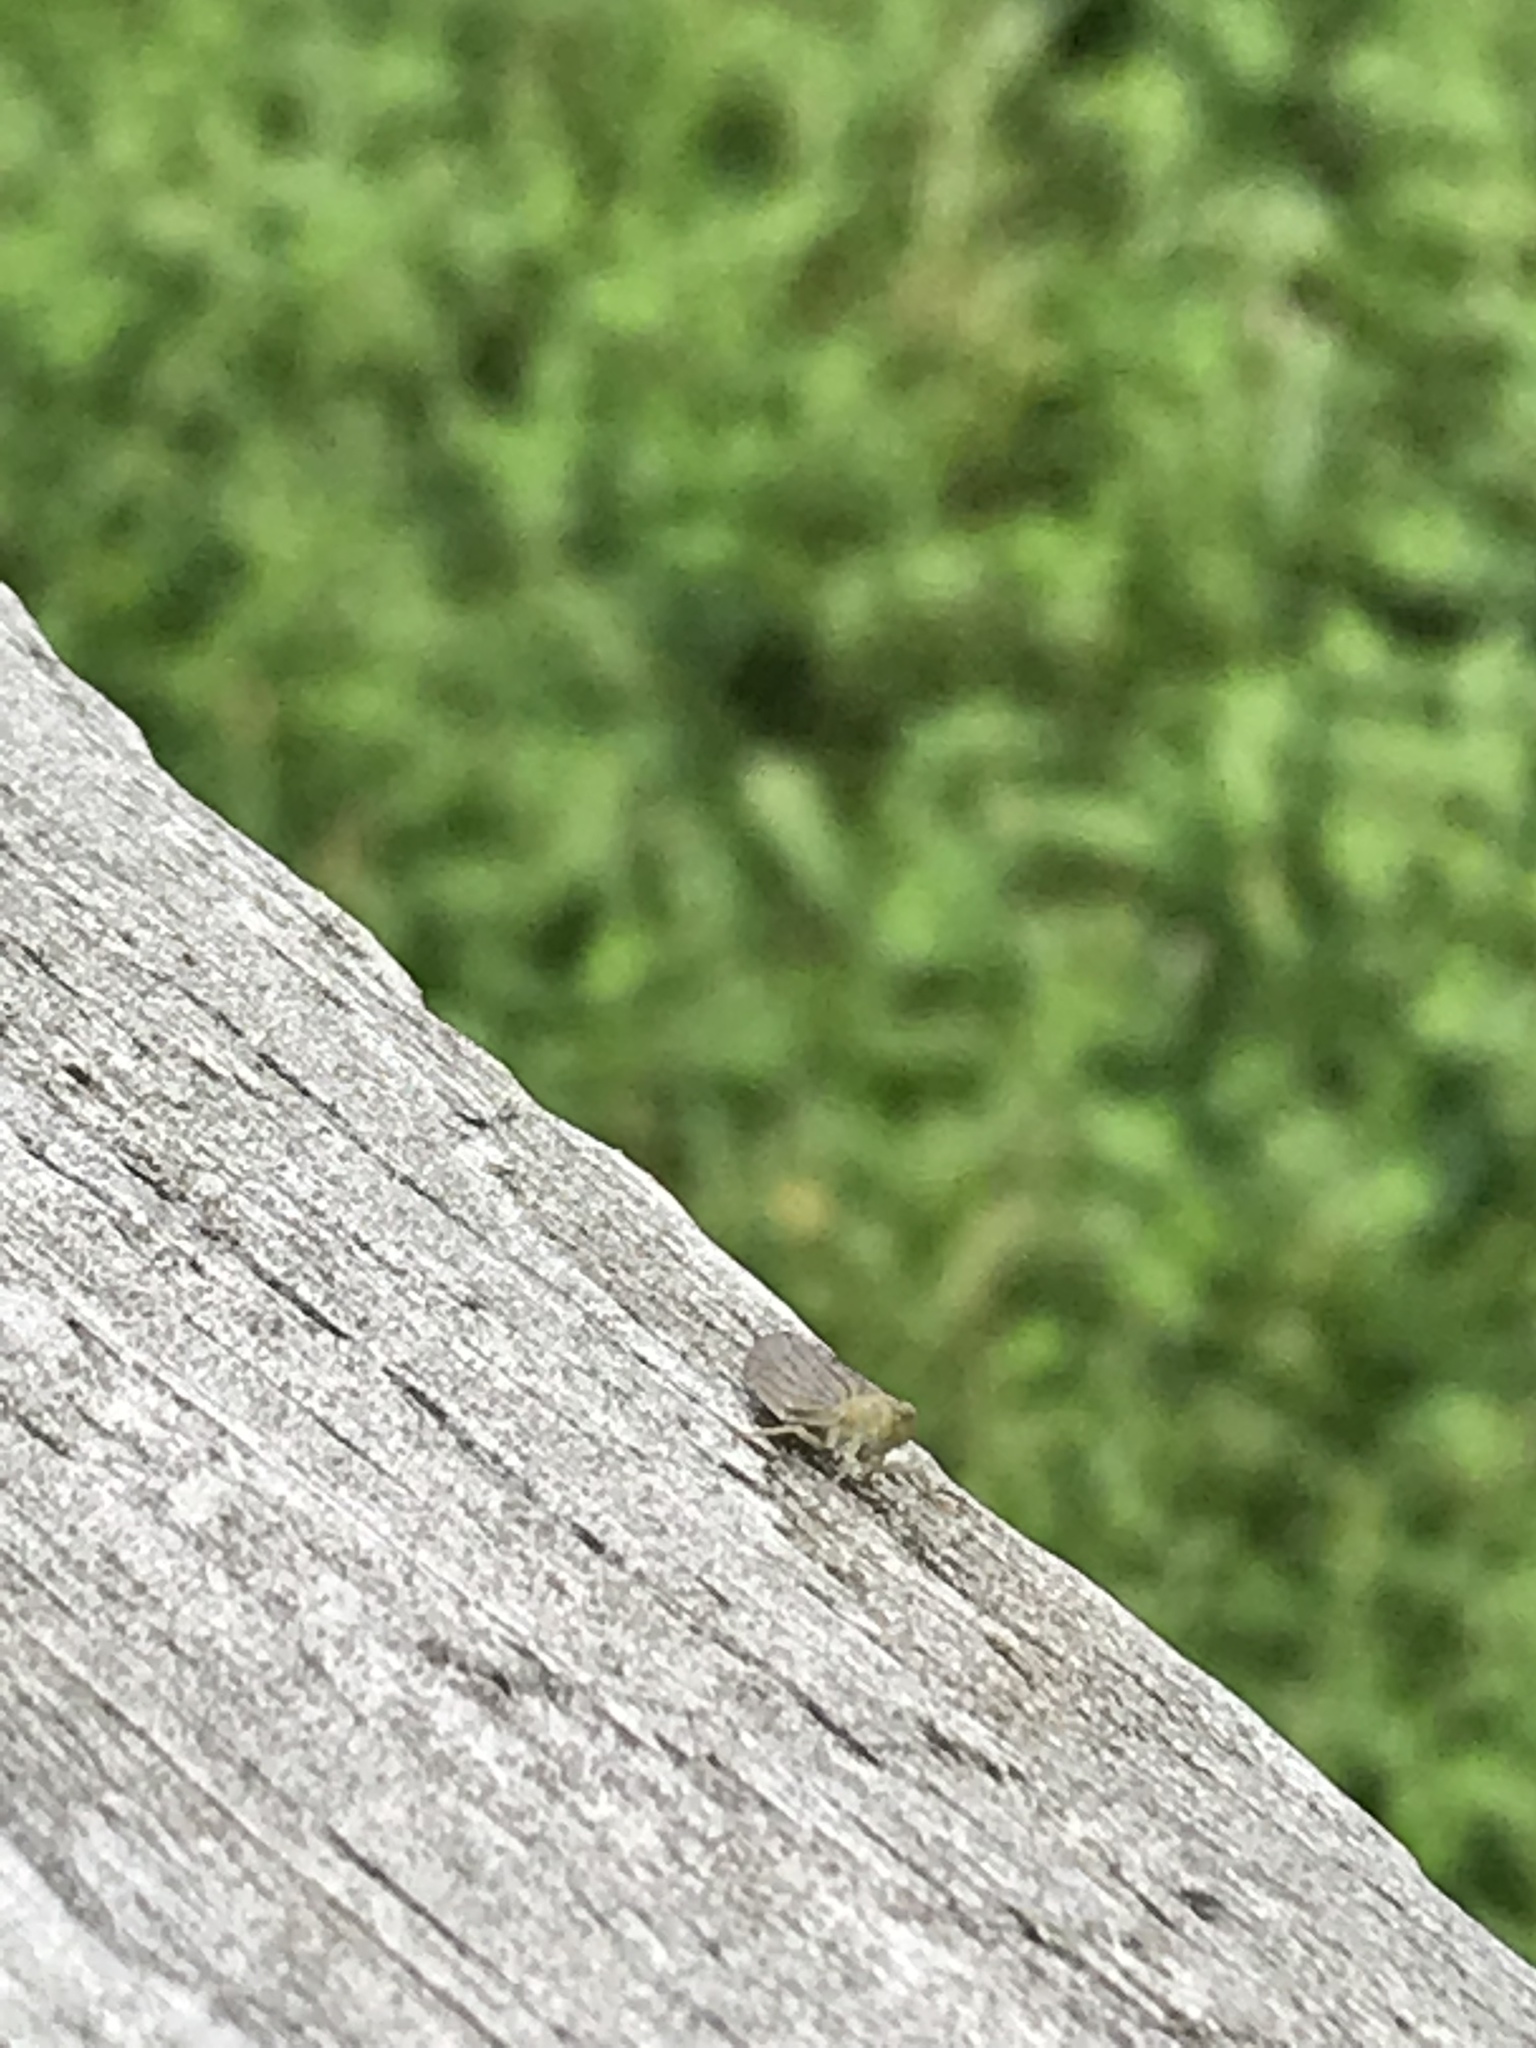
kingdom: Animalia
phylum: Arthropoda
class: Insecta
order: Hemiptera
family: Issidae
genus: Aplos
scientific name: Aplos simplex
